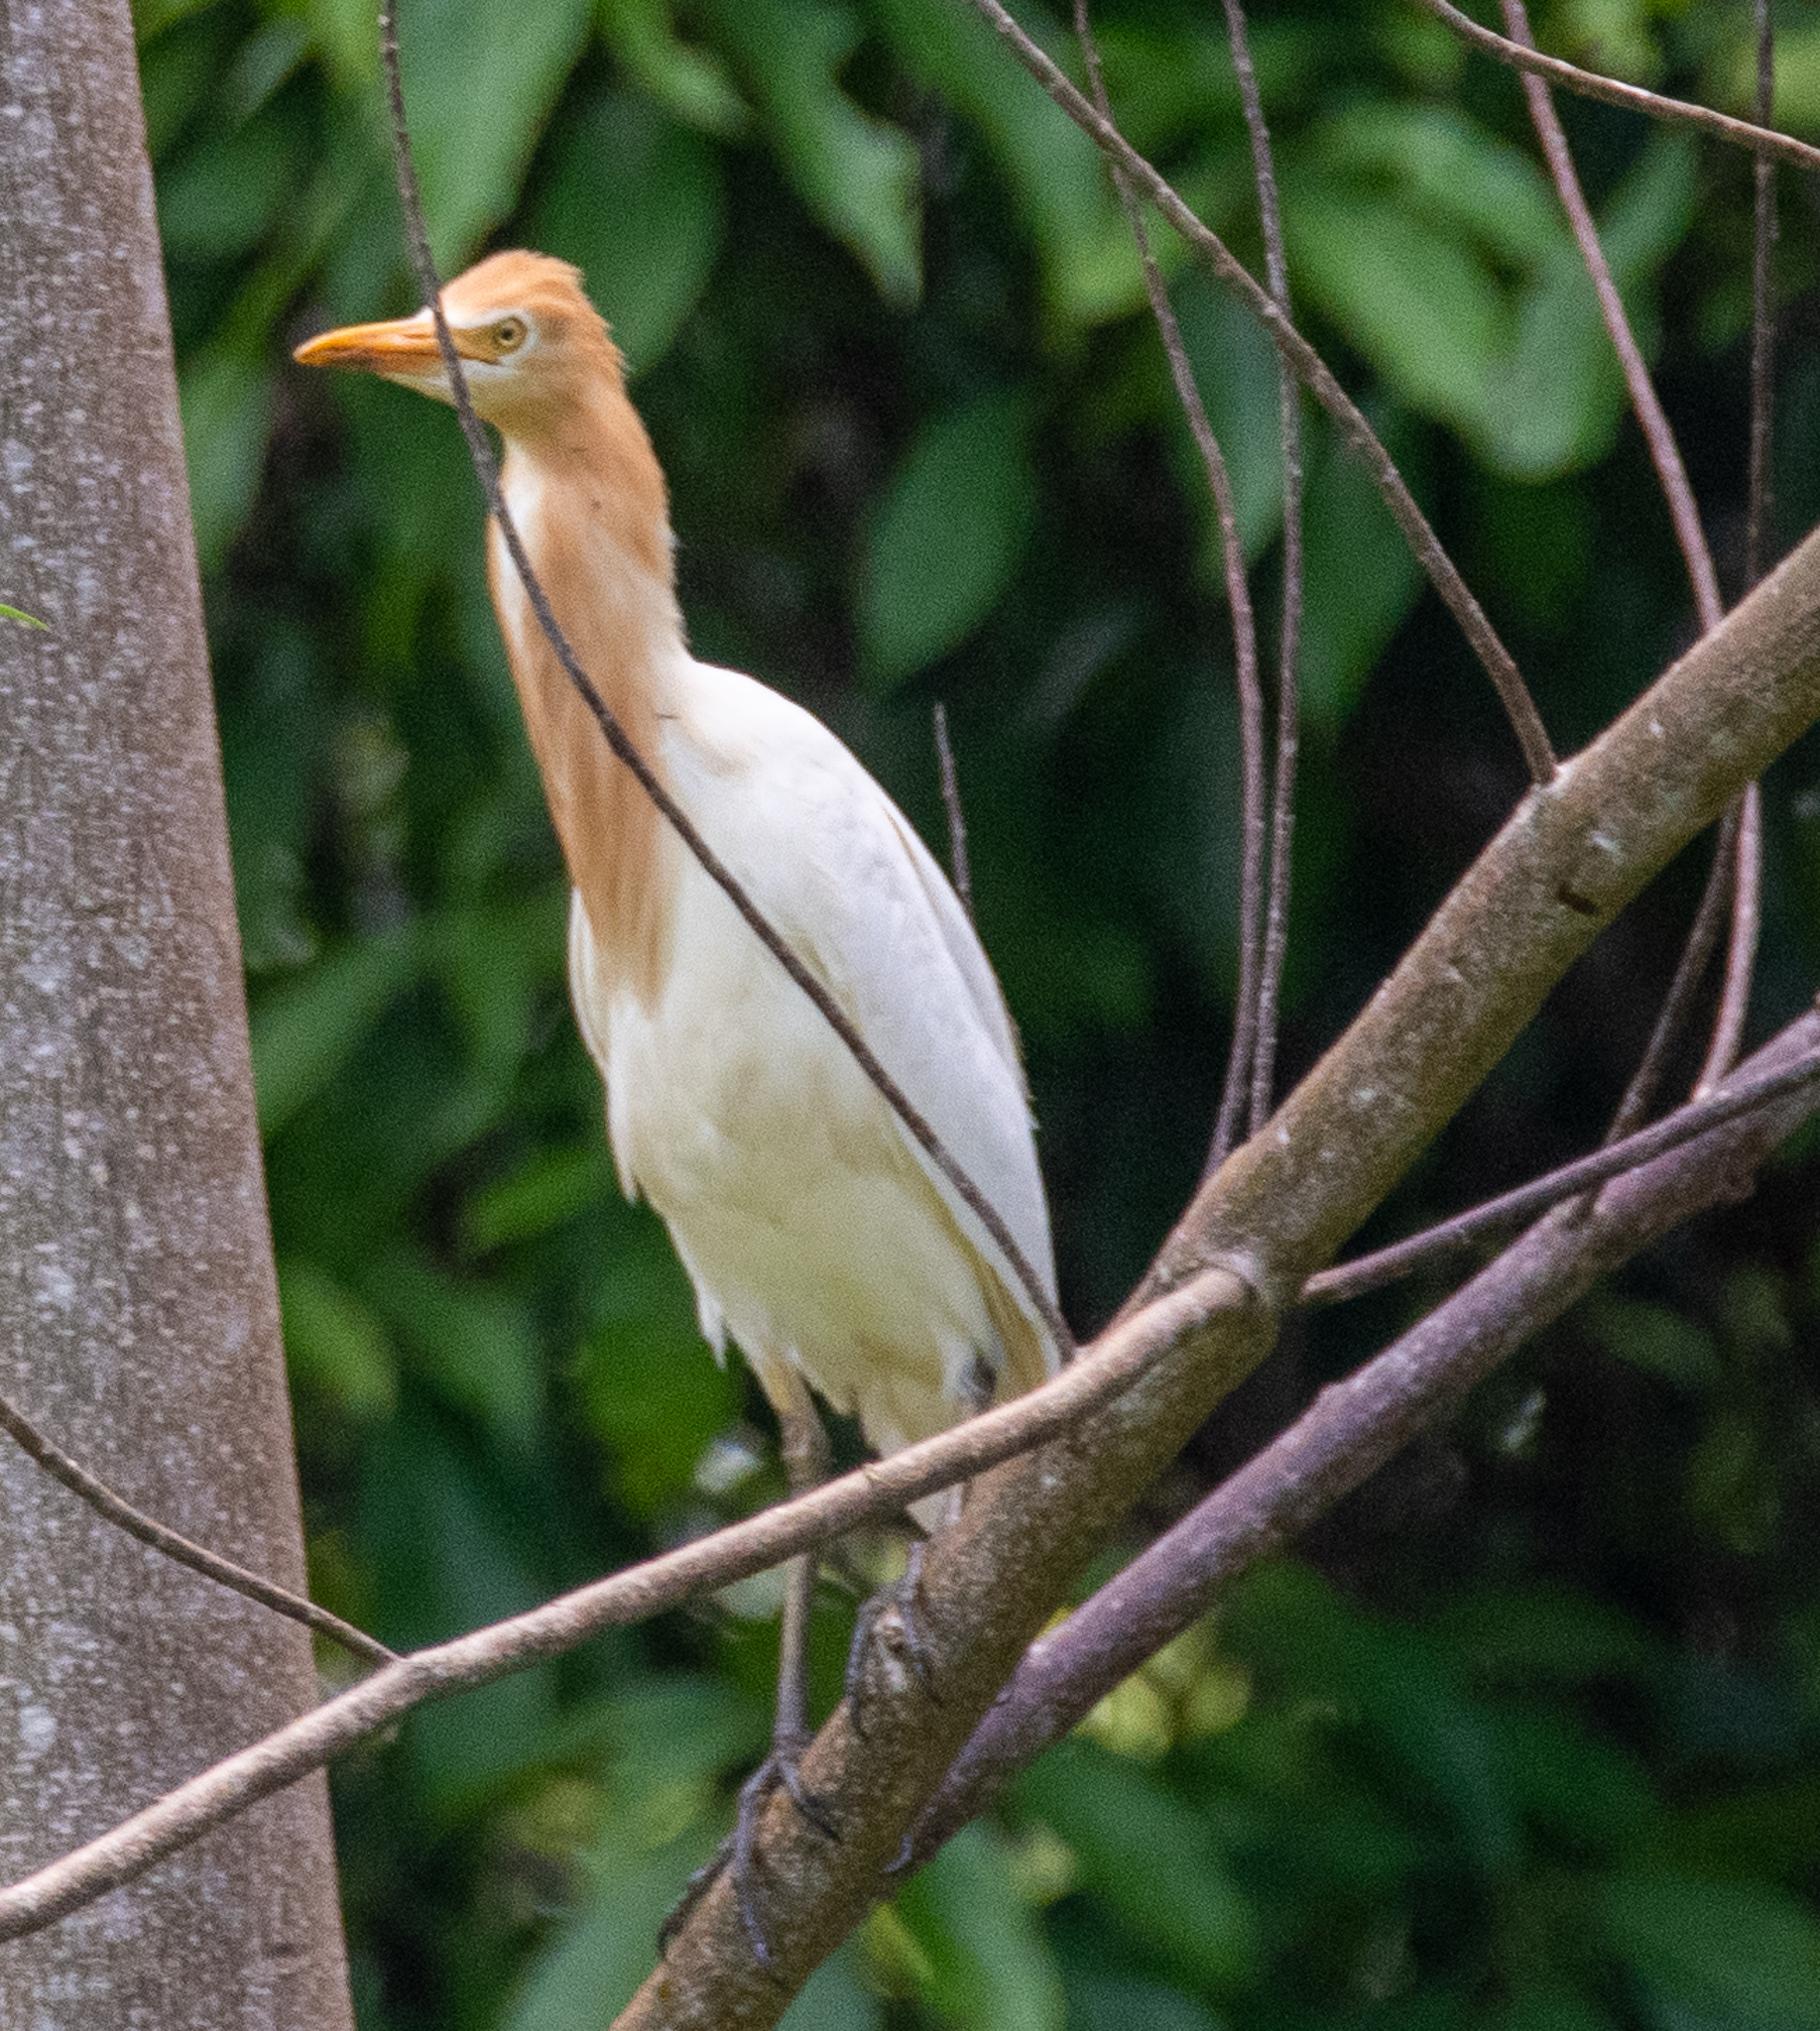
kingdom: Animalia
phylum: Chordata
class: Aves
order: Pelecaniformes
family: Ardeidae
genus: Bubulcus
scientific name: Bubulcus coromandus
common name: Eastern cattle egret
